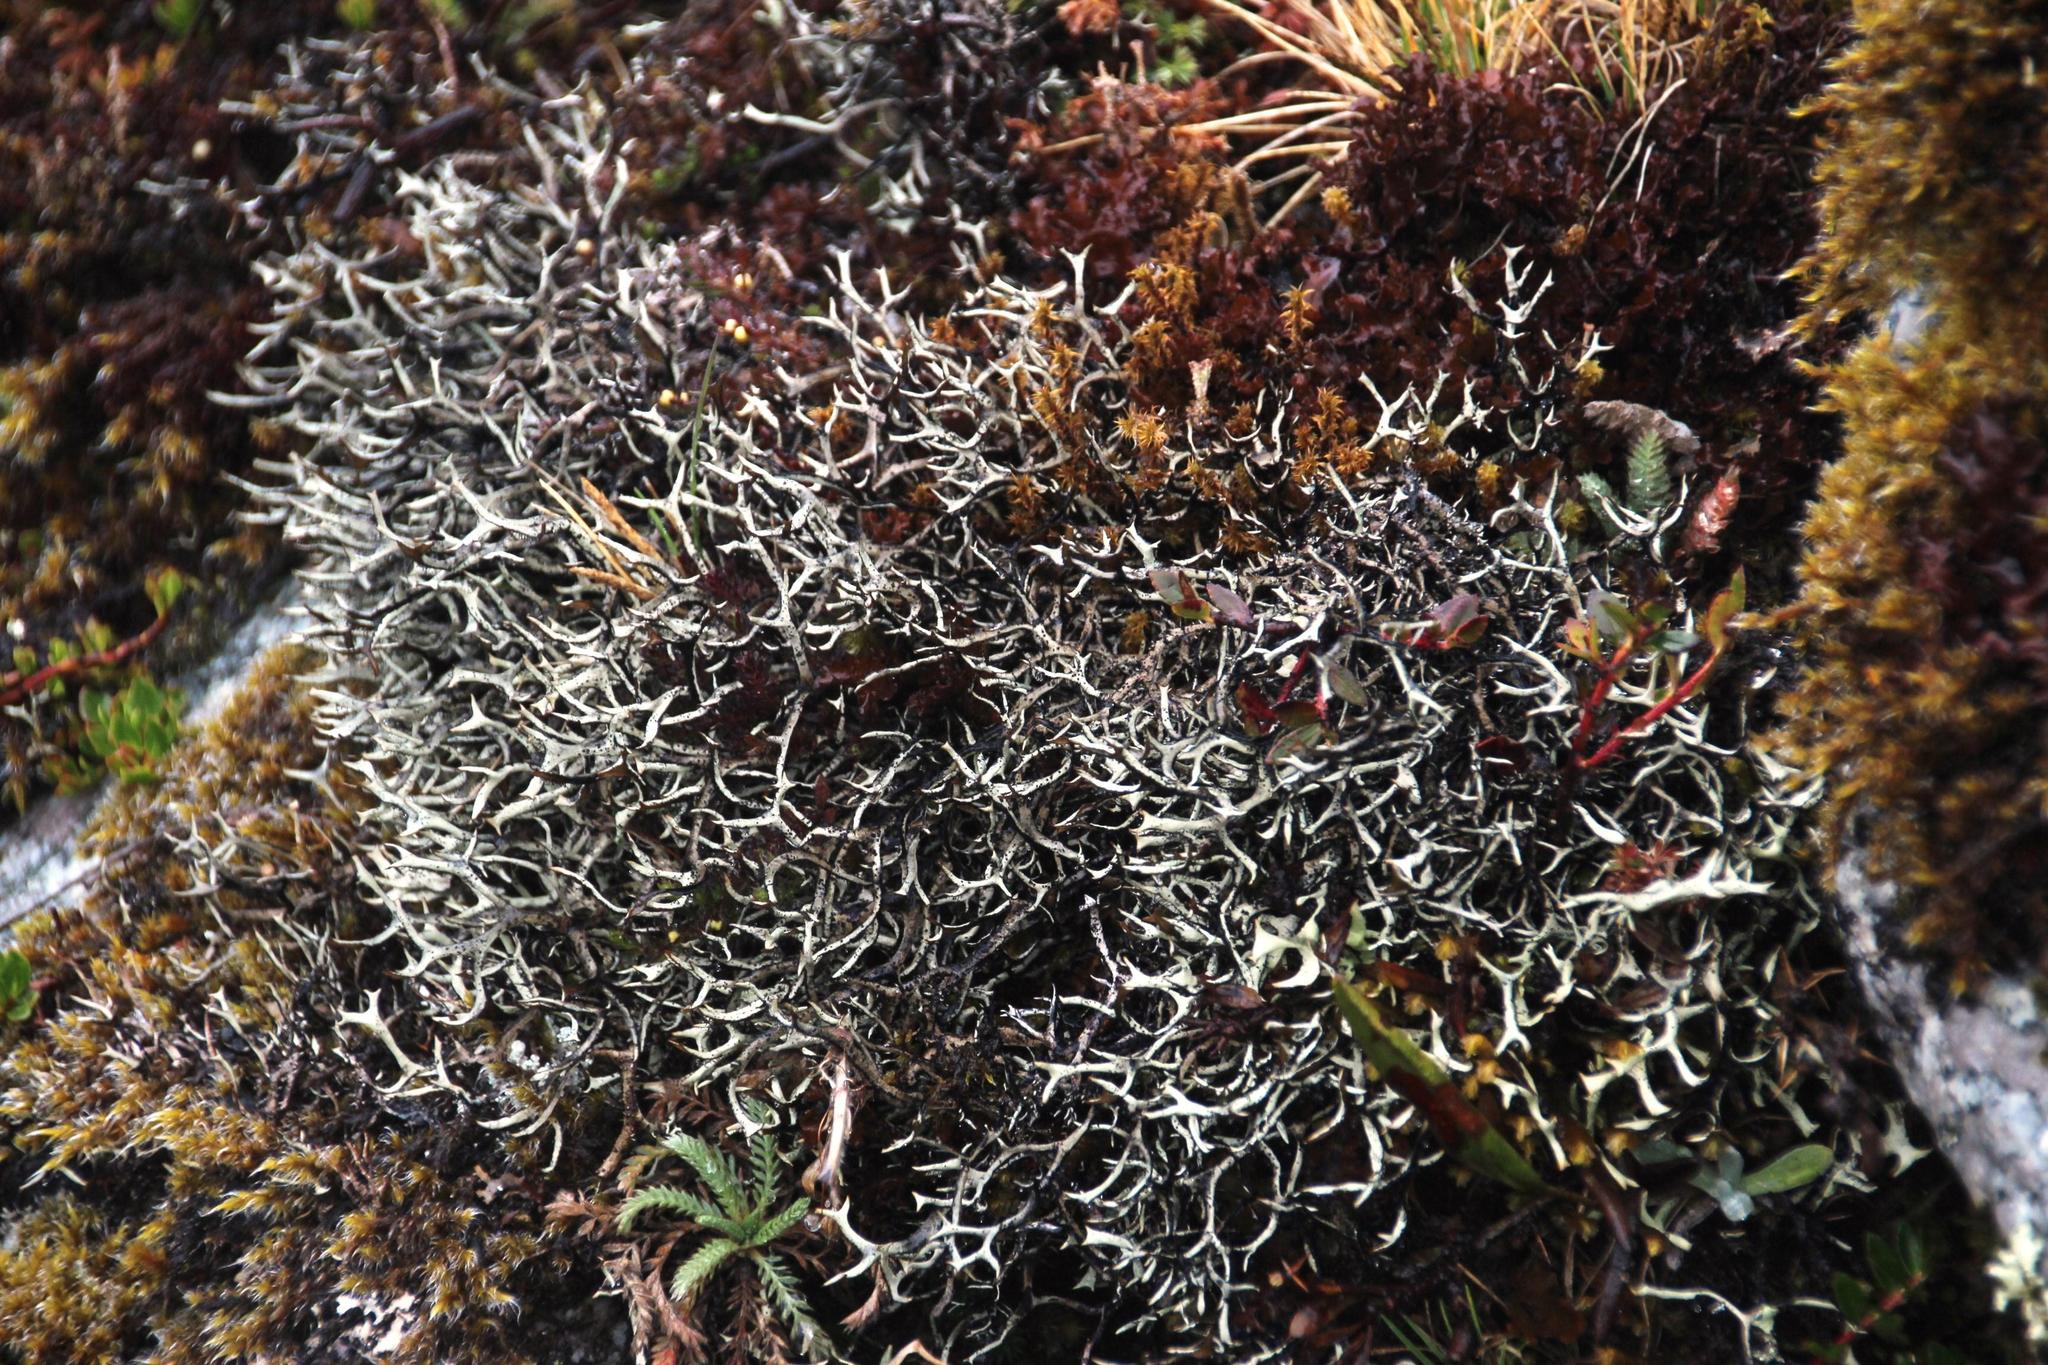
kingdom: Fungi
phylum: Ascomycota
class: Lecanoromycetes
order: Caliciales
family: Physciaceae
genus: Leucodermia
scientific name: Leucodermia leucomelos
